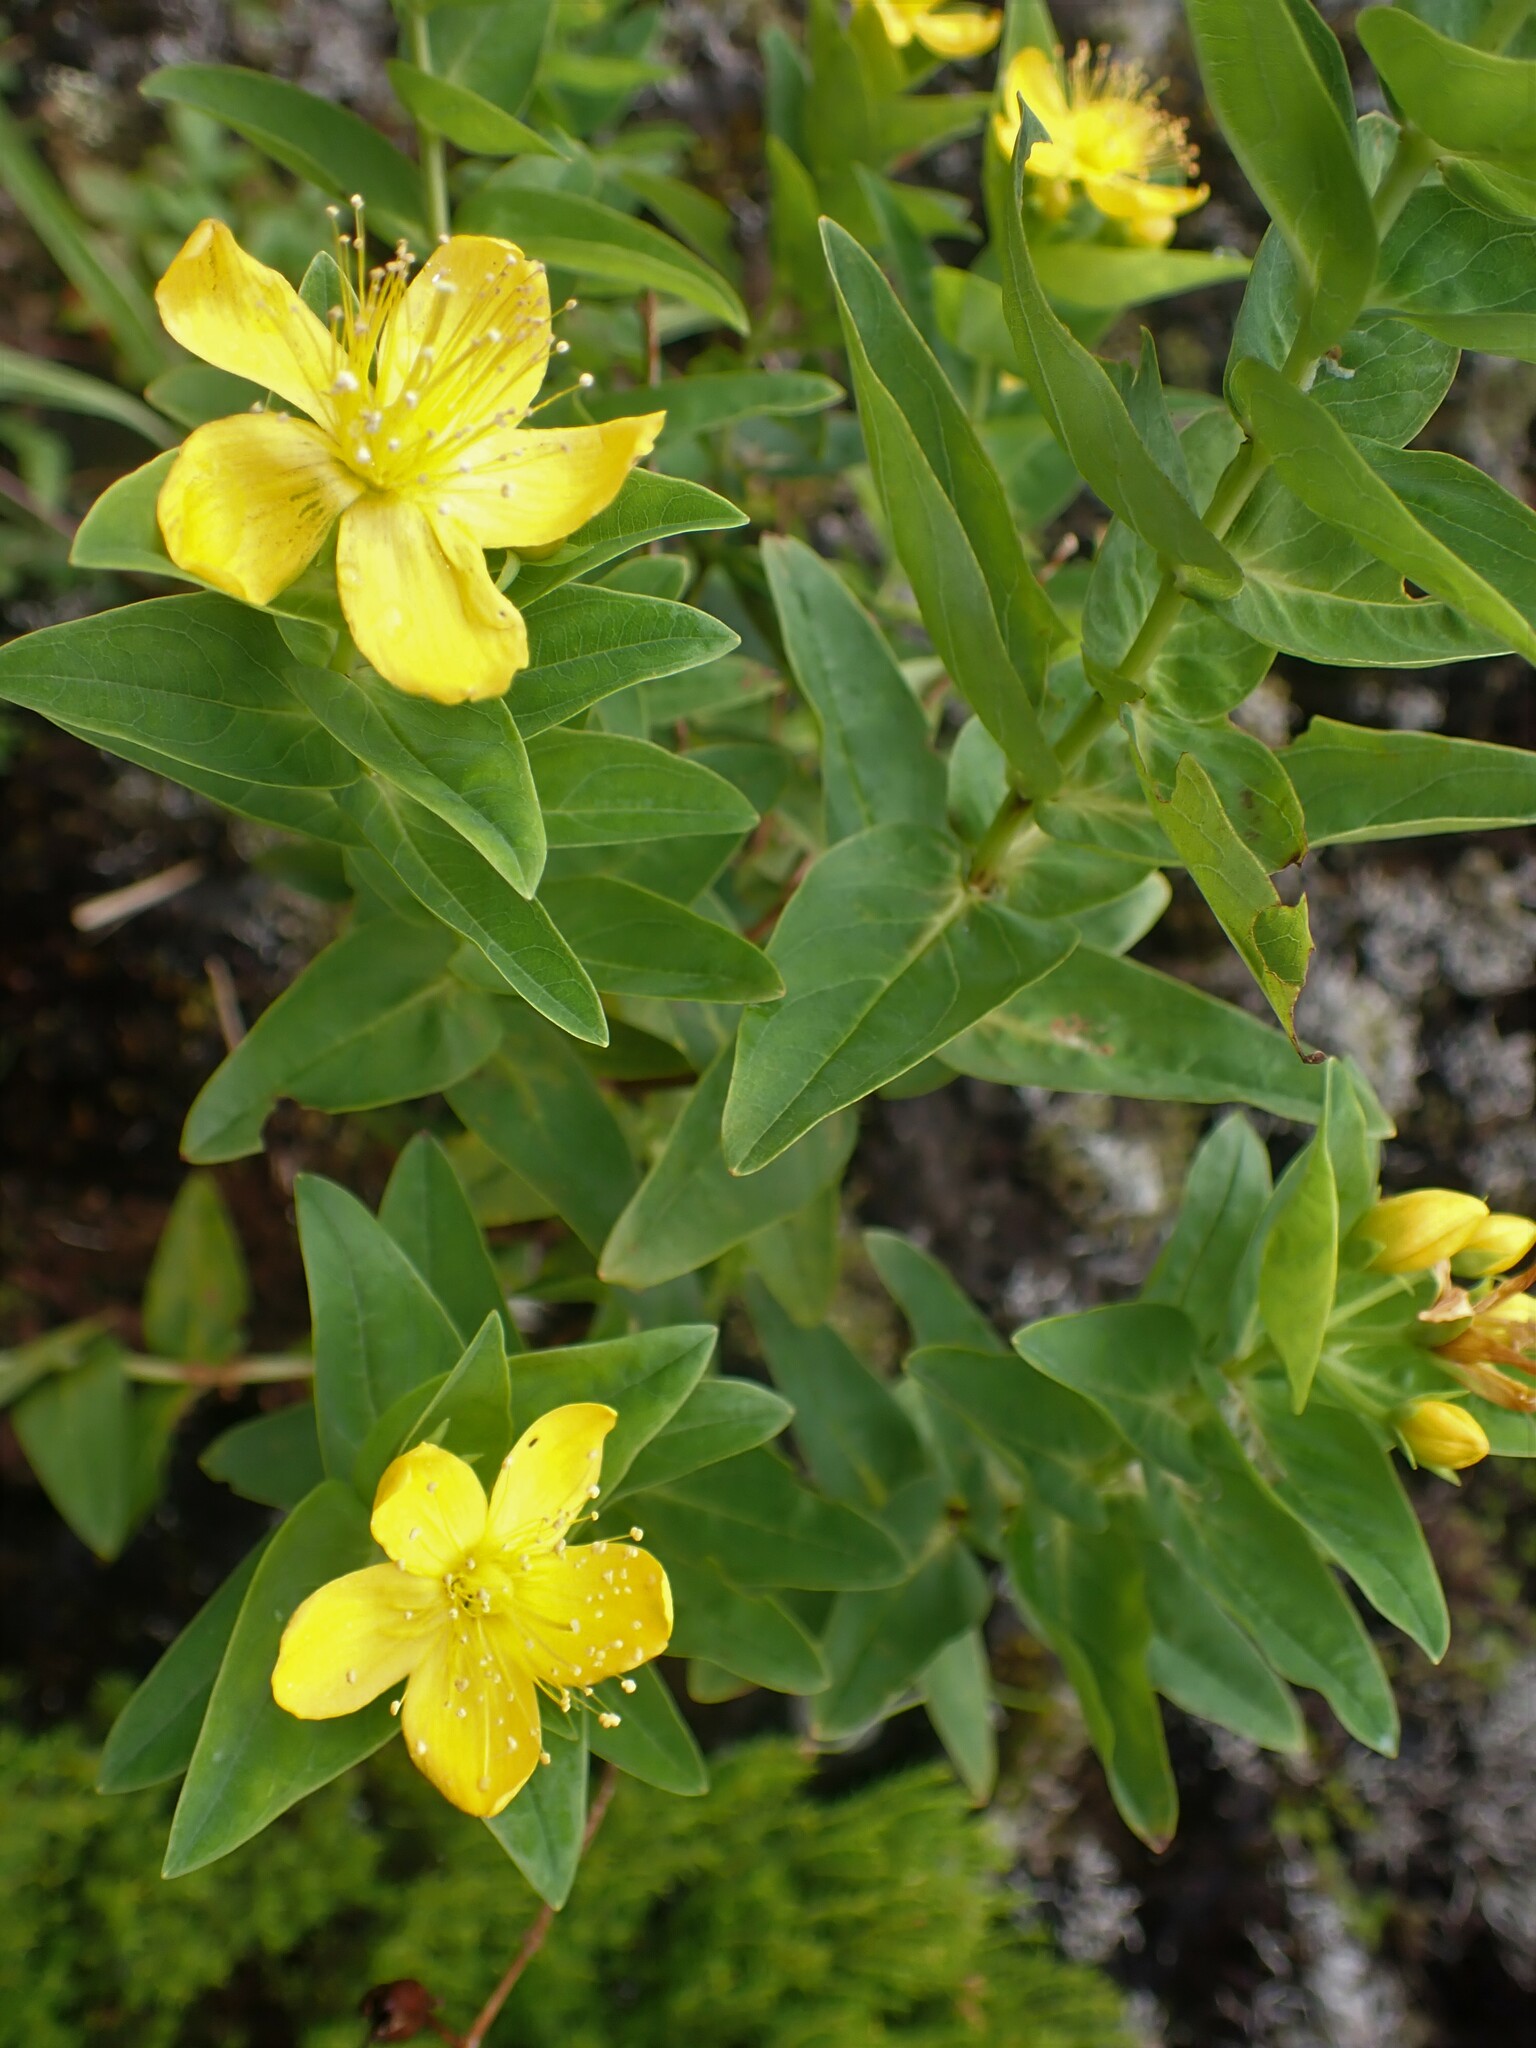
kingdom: Plantae
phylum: Tracheophyta
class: Magnoliopsida
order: Malpighiales
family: Hypericaceae
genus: Hypericum
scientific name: Hypericum foliosum
